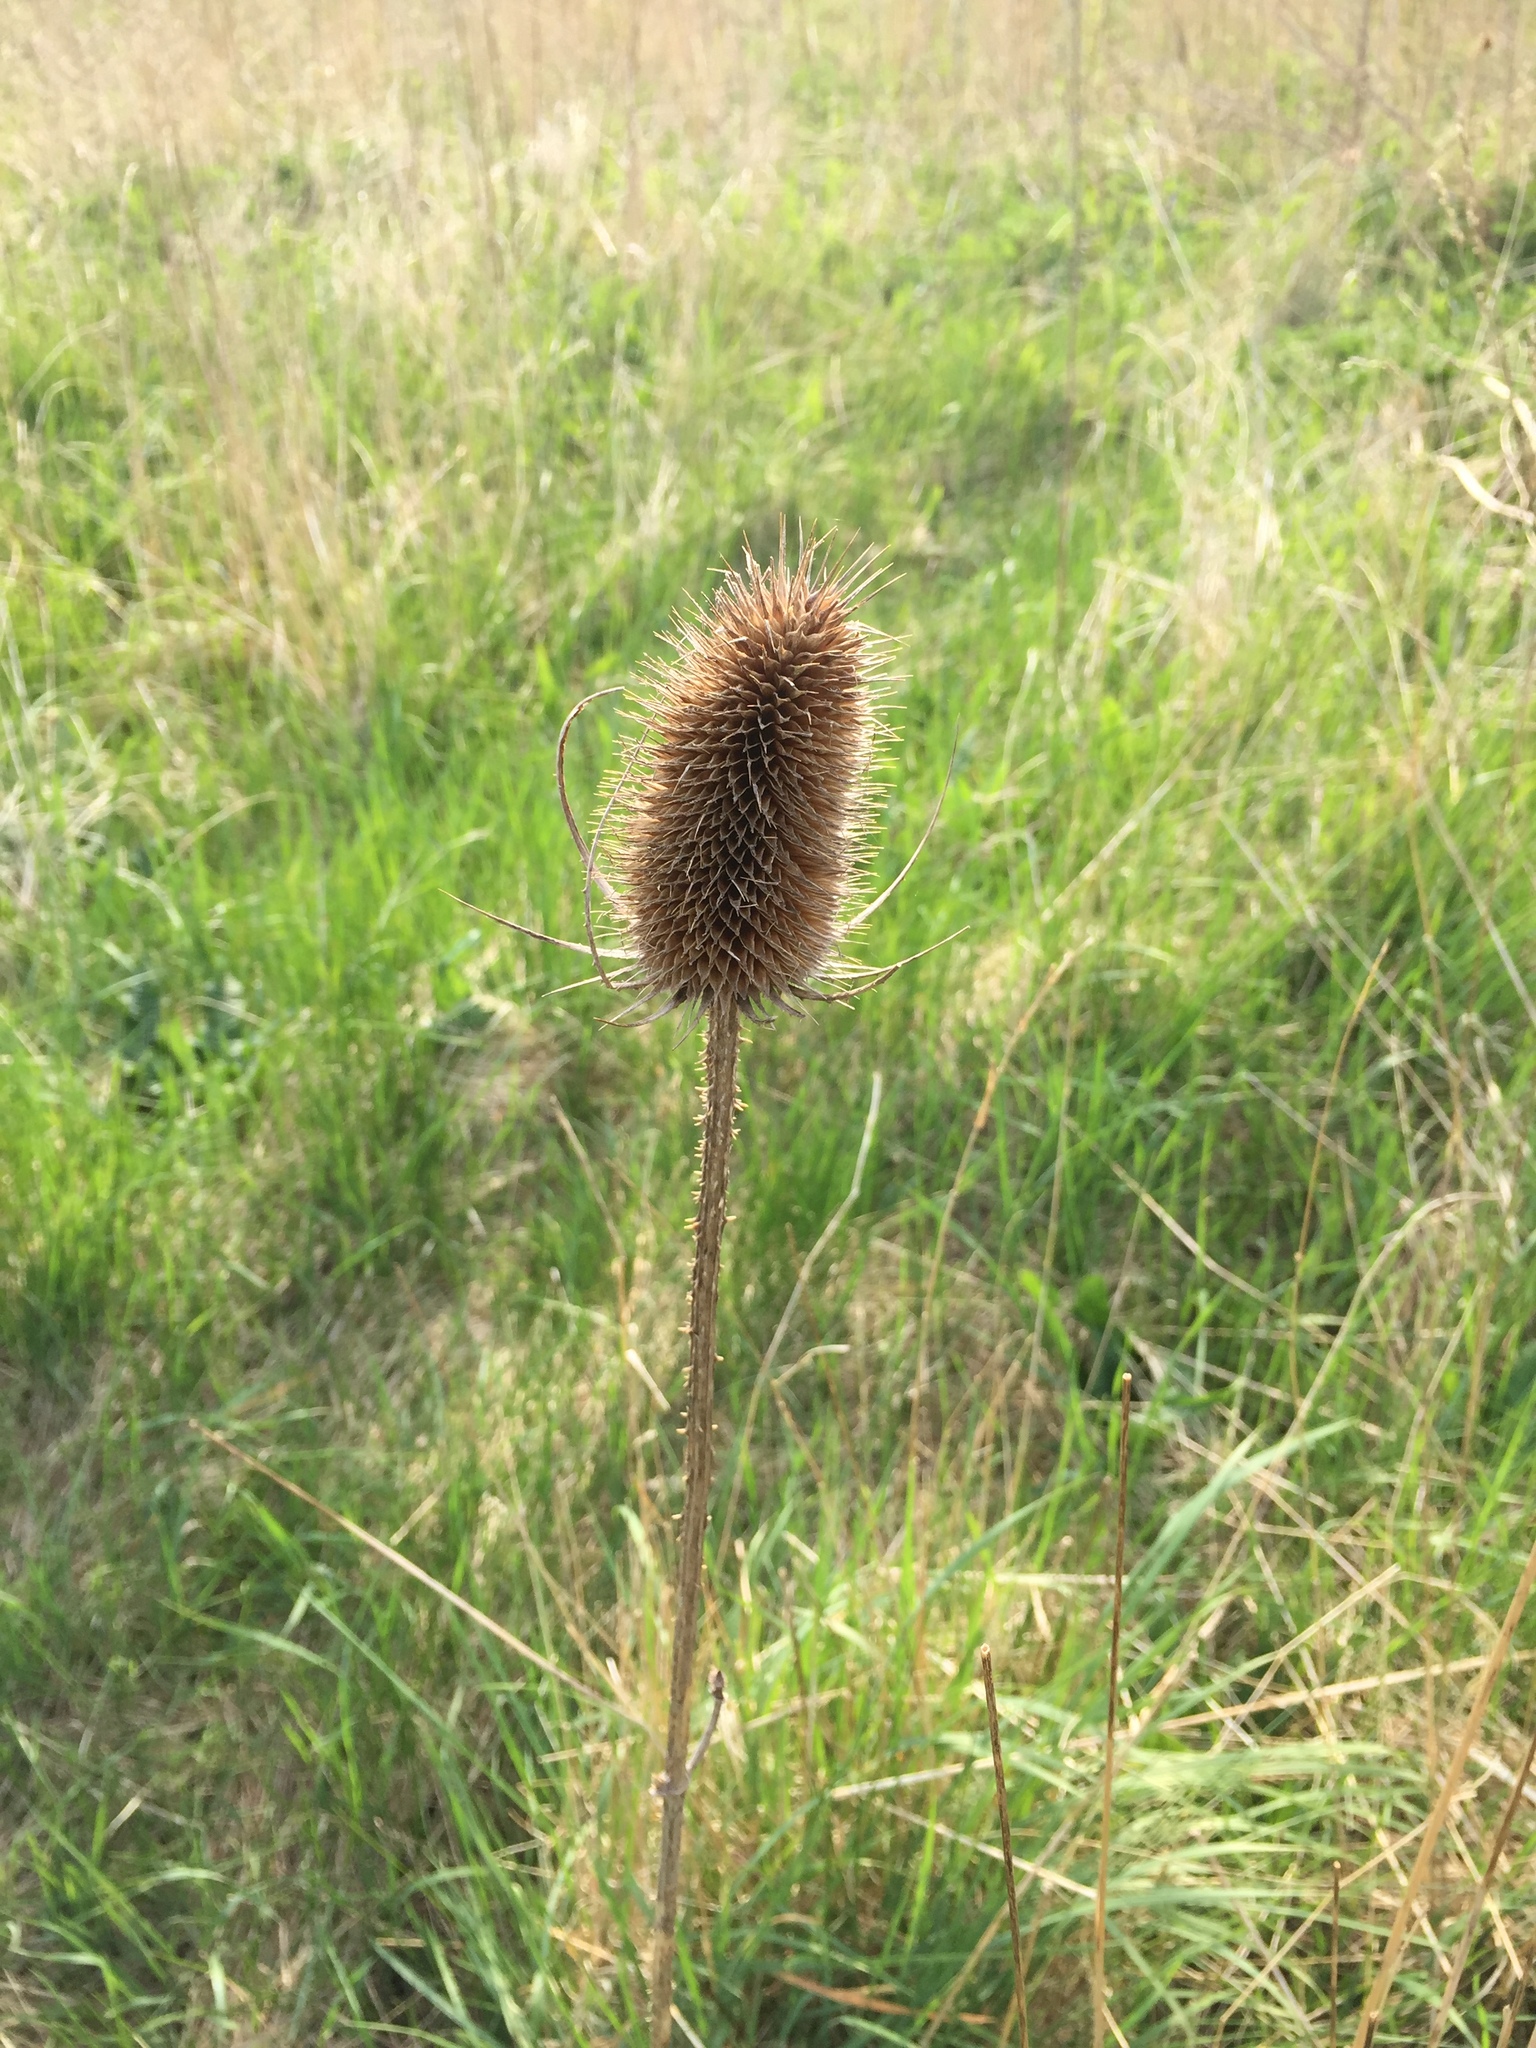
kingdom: Plantae
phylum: Tracheophyta
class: Magnoliopsida
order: Dipsacales
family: Caprifoliaceae
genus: Dipsacus
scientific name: Dipsacus fullonum
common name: Teasel
